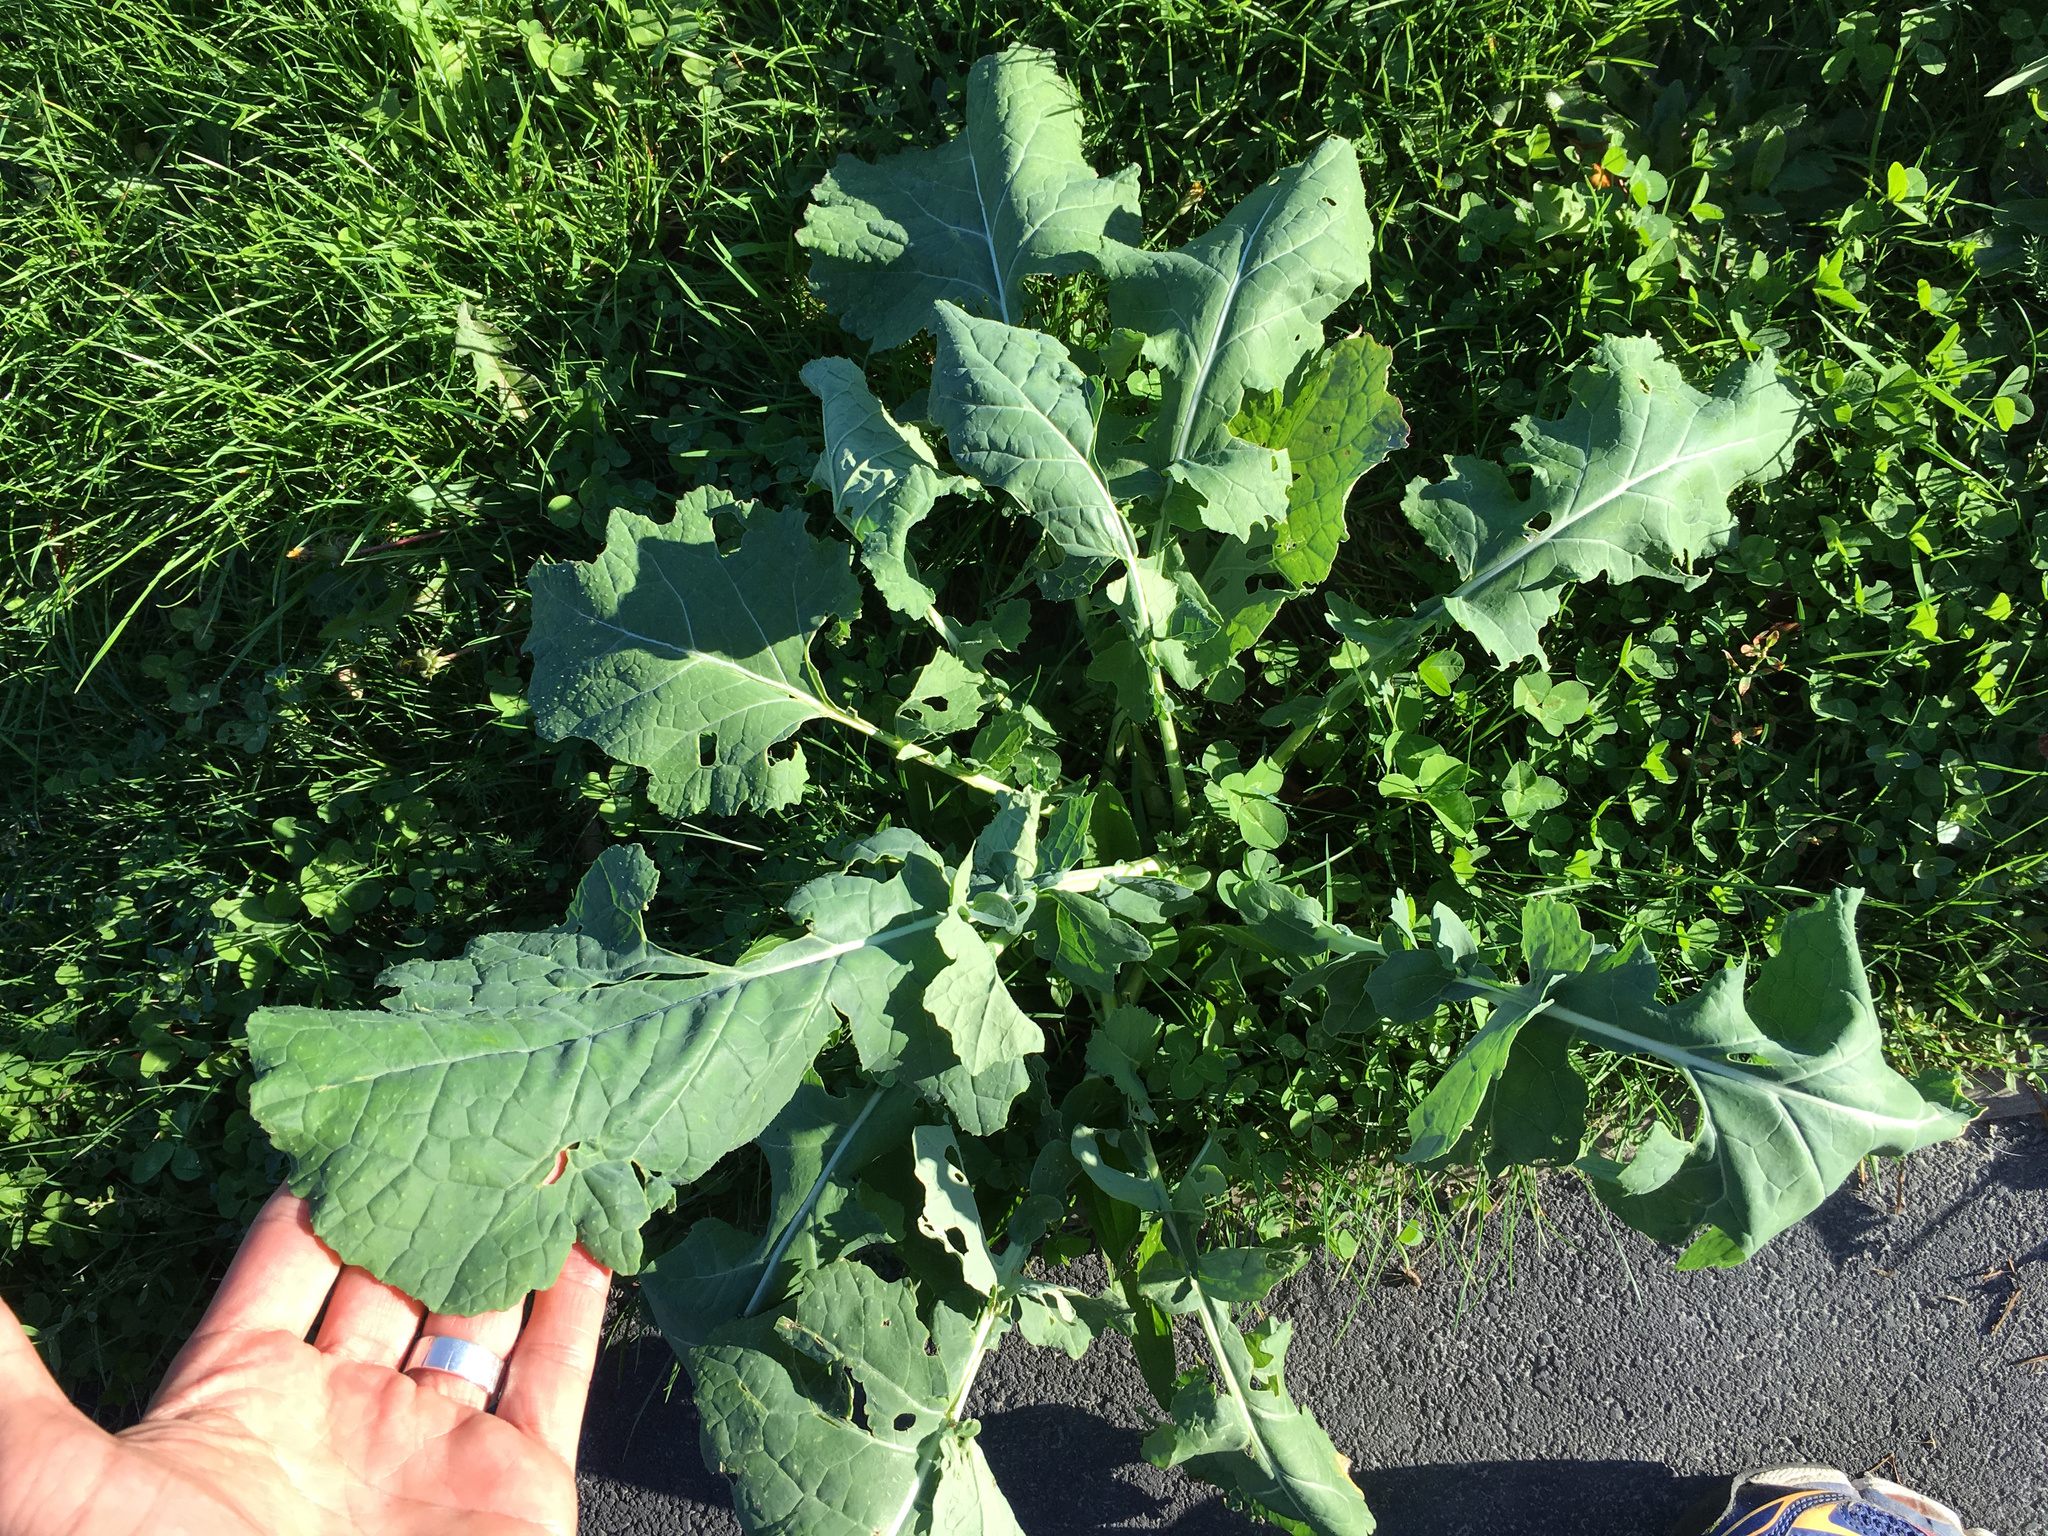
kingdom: Plantae
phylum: Tracheophyta
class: Magnoliopsida
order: Brassicales
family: Brassicaceae
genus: Brassica
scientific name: Brassica oleracea
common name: Cabbage
